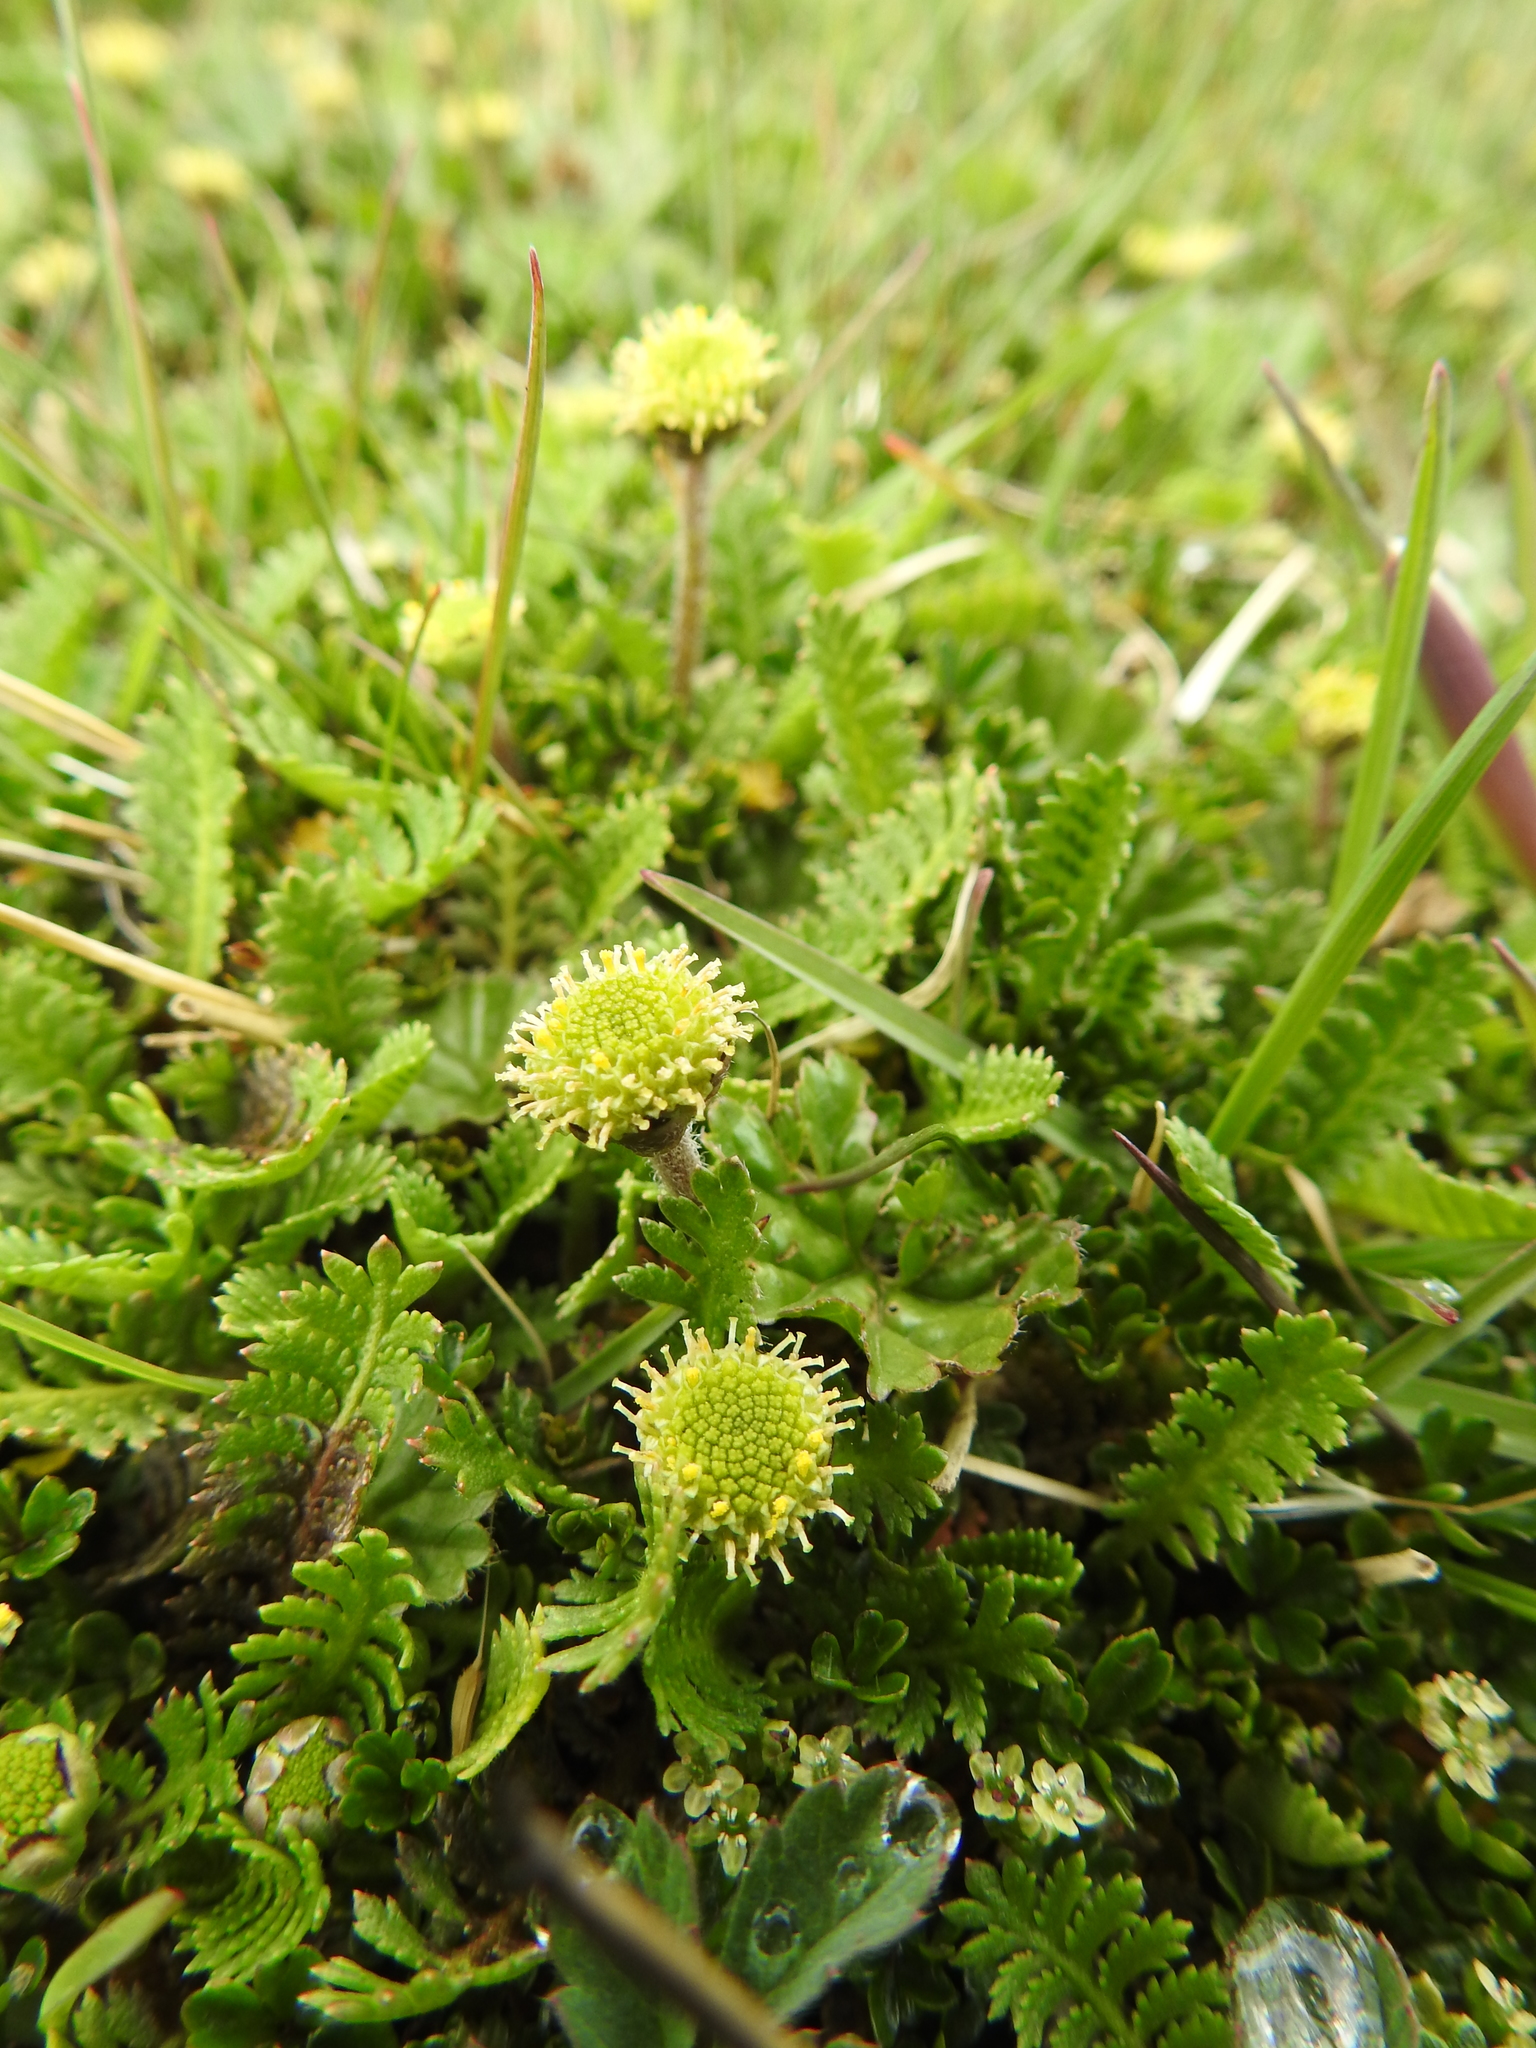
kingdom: Plantae
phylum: Tracheophyta
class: Magnoliopsida
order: Asterales
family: Asteraceae
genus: Leptinella
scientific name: Leptinella scariosa
